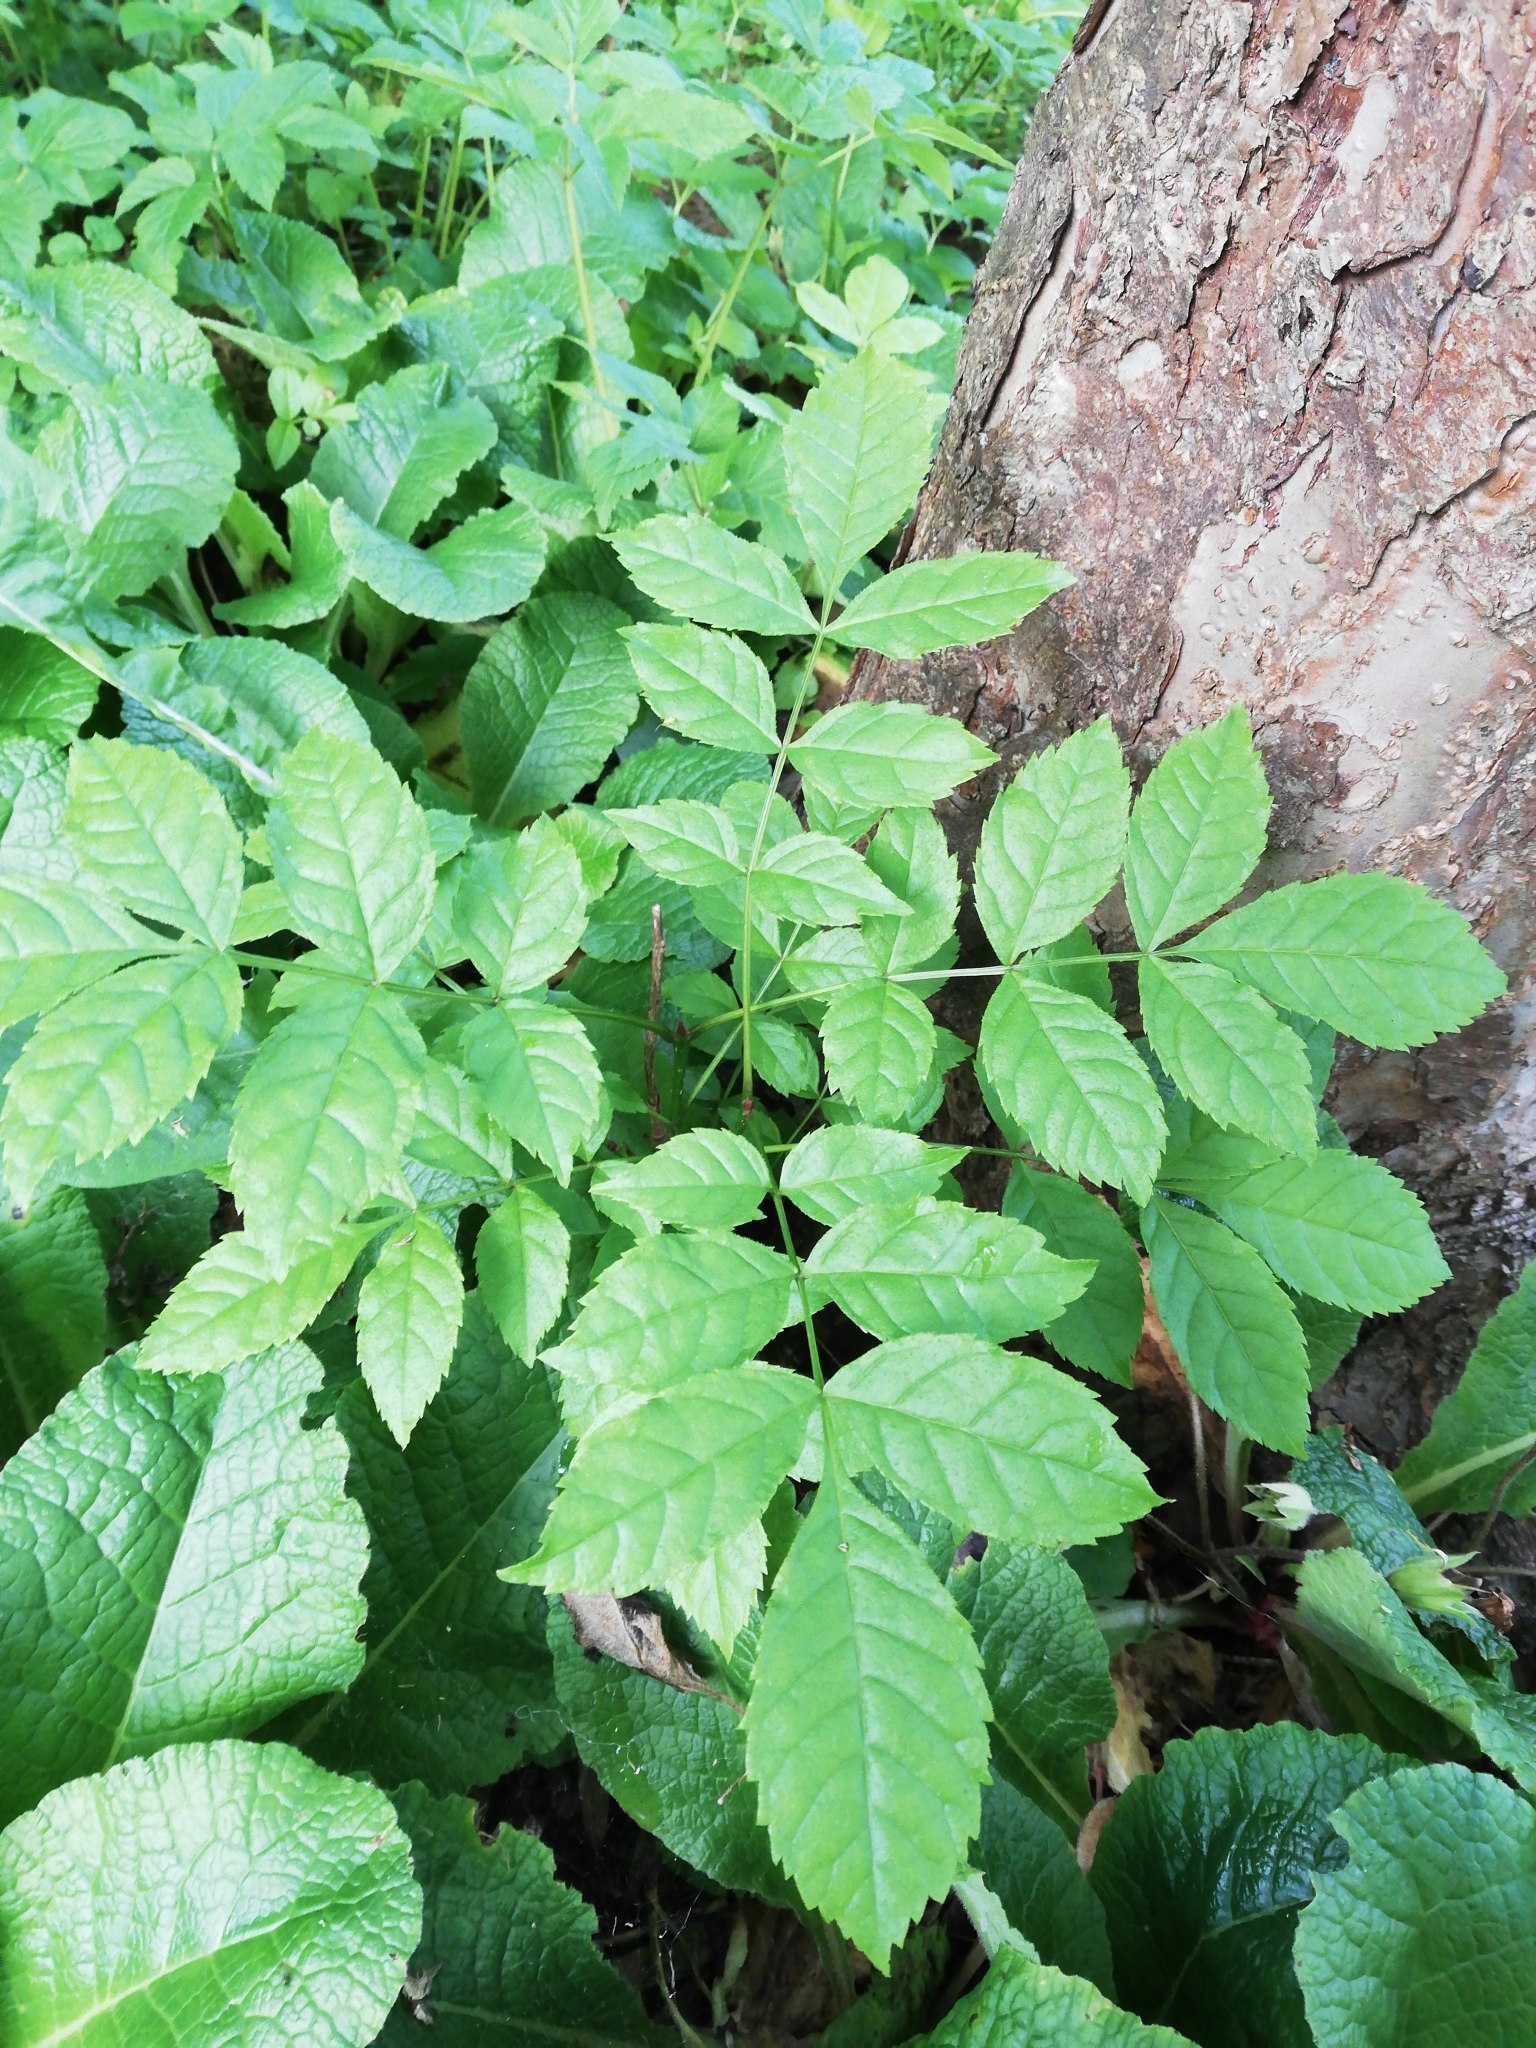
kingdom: Plantae
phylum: Tracheophyta
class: Magnoliopsida
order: Lamiales
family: Oleaceae
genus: Fraxinus
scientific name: Fraxinus excelsior
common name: European ash
